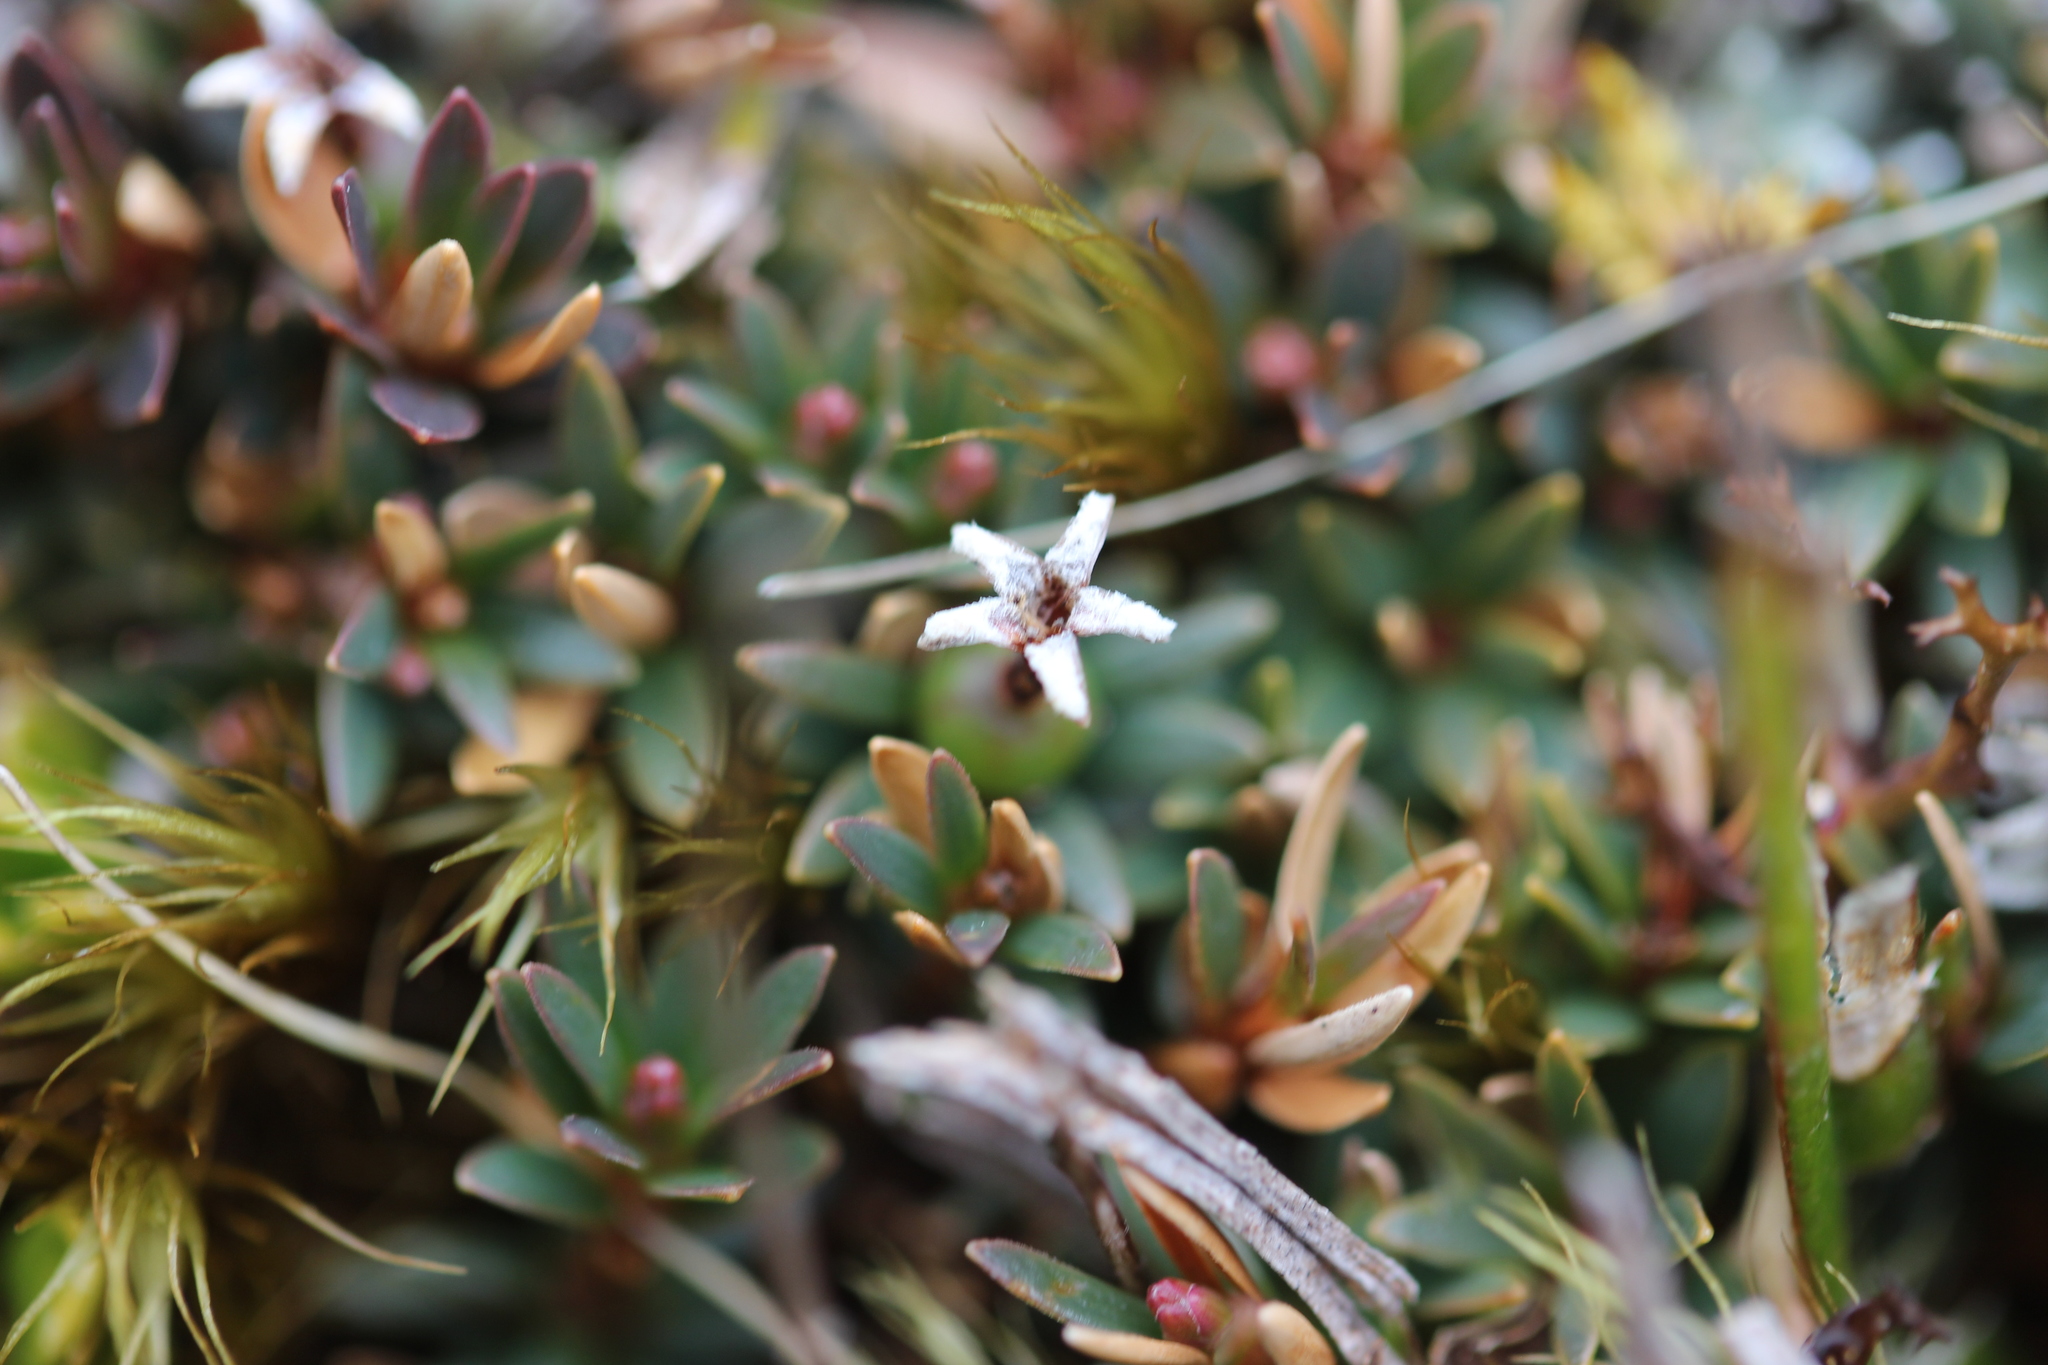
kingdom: Plantae
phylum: Tracheophyta
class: Magnoliopsida
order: Ericales
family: Ericaceae
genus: Pentachondra
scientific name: Pentachondra pumila
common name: Carpet-heath
